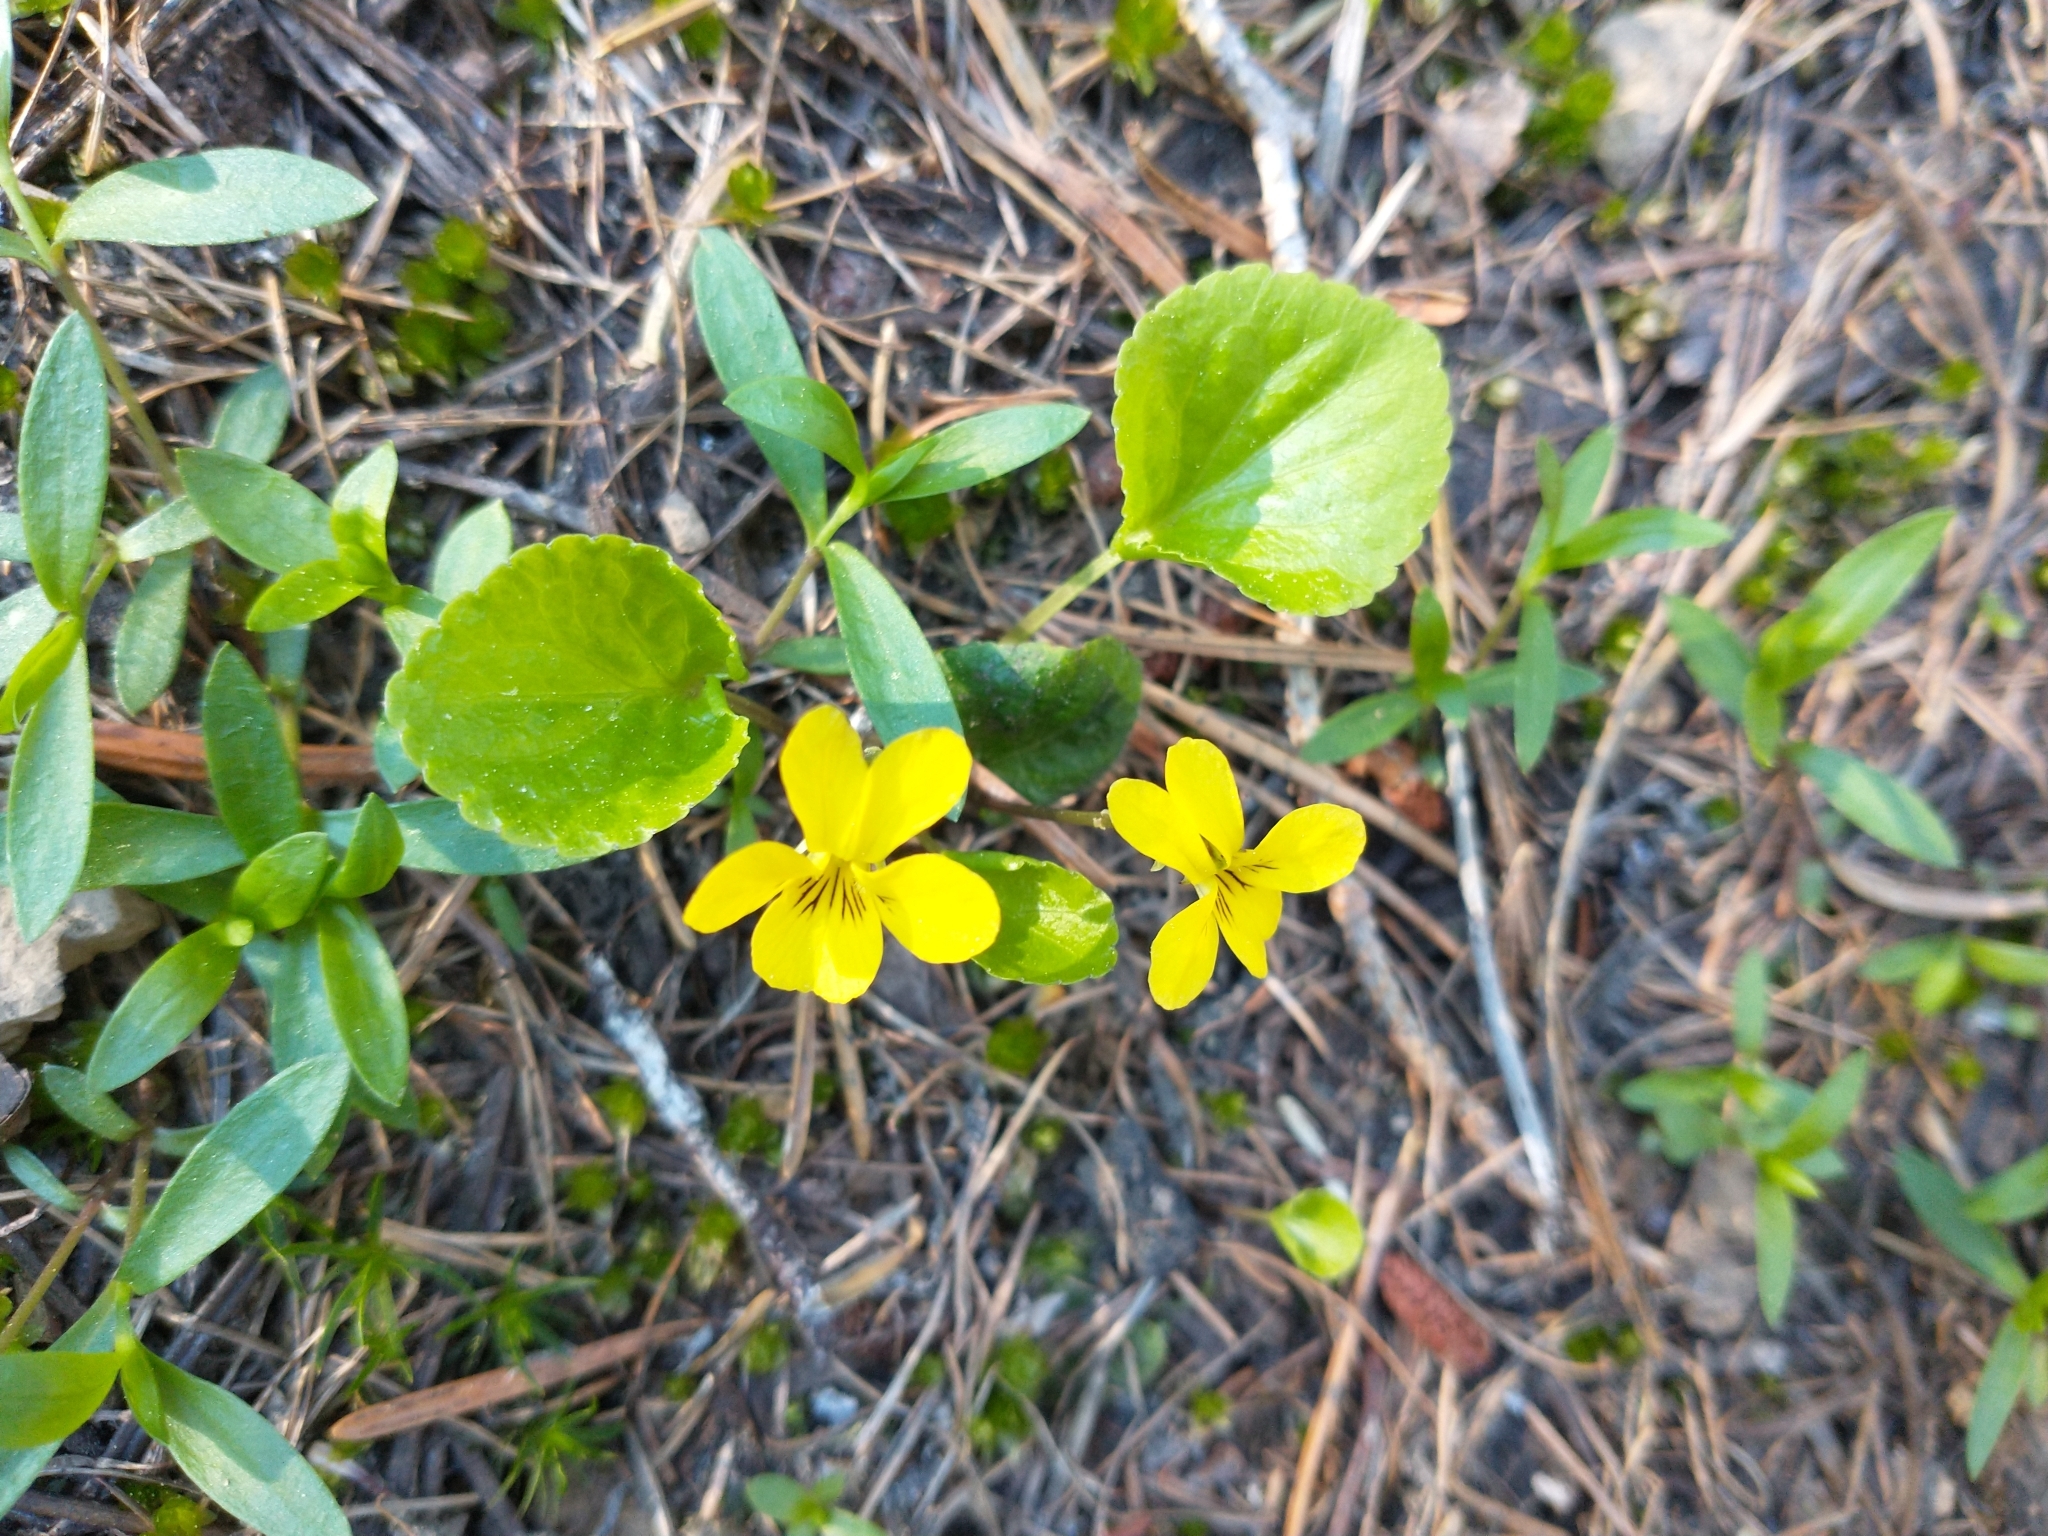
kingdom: Plantae
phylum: Tracheophyta
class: Magnoliopsida
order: Malpighiales
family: Violaceae
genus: Viola
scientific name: Viola orbiculata
